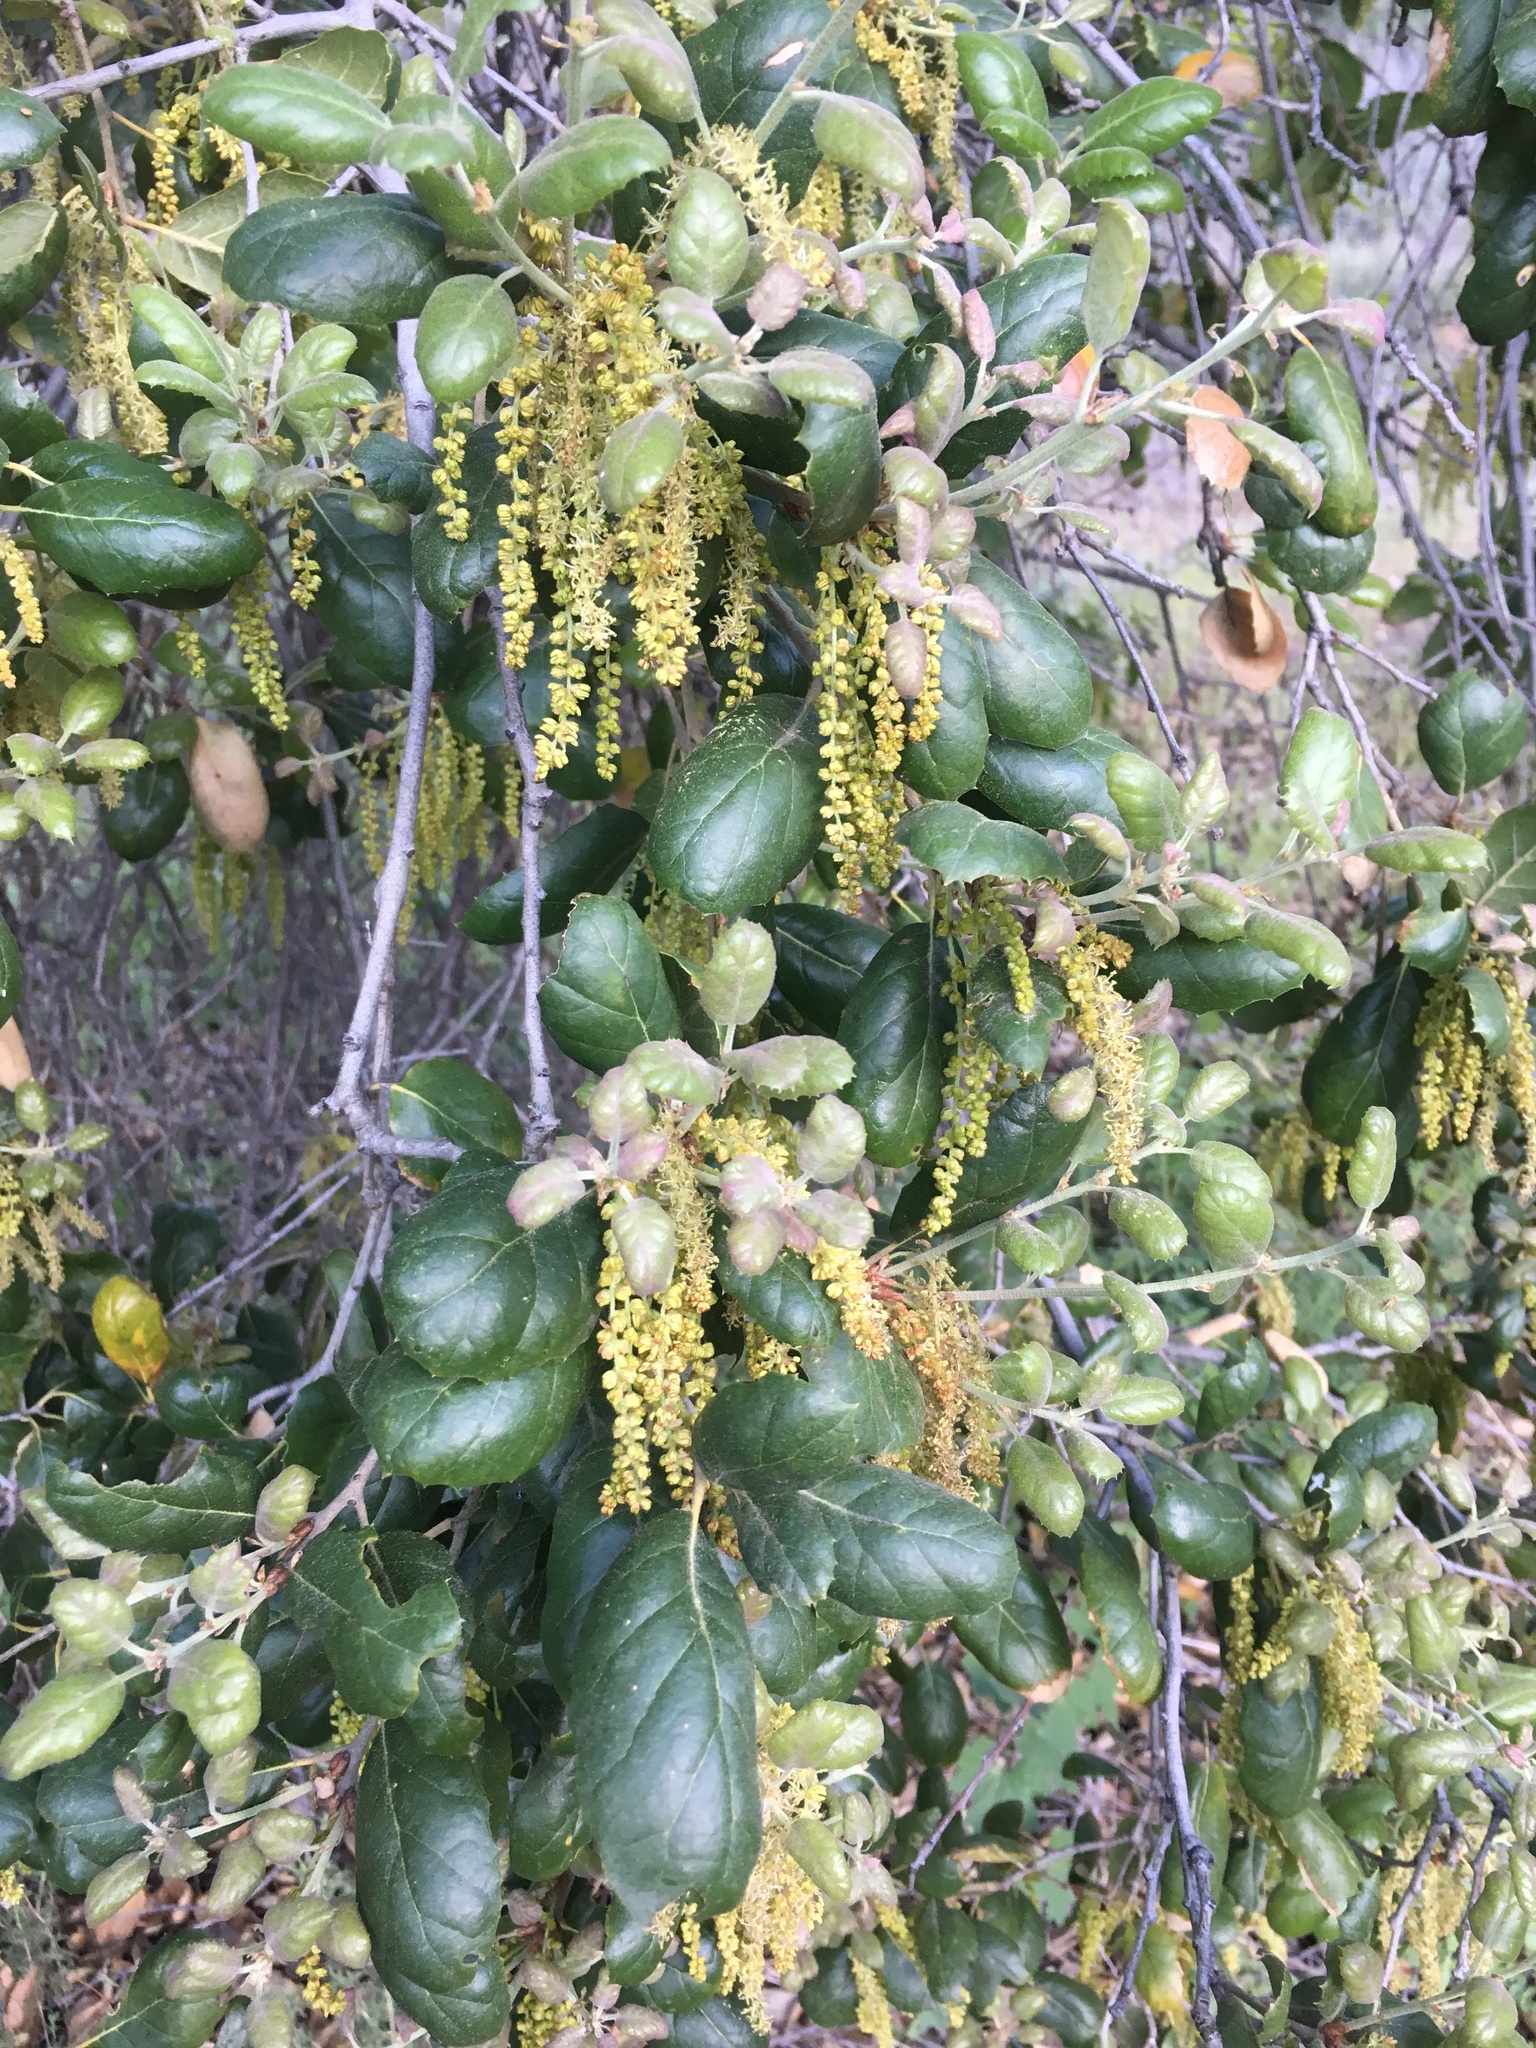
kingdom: Plantae
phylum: Tracheophyta
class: Magnoliopsida
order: Fagales
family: Fagaceae
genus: Quercus
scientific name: Quercus agrifolia
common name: California live oak
